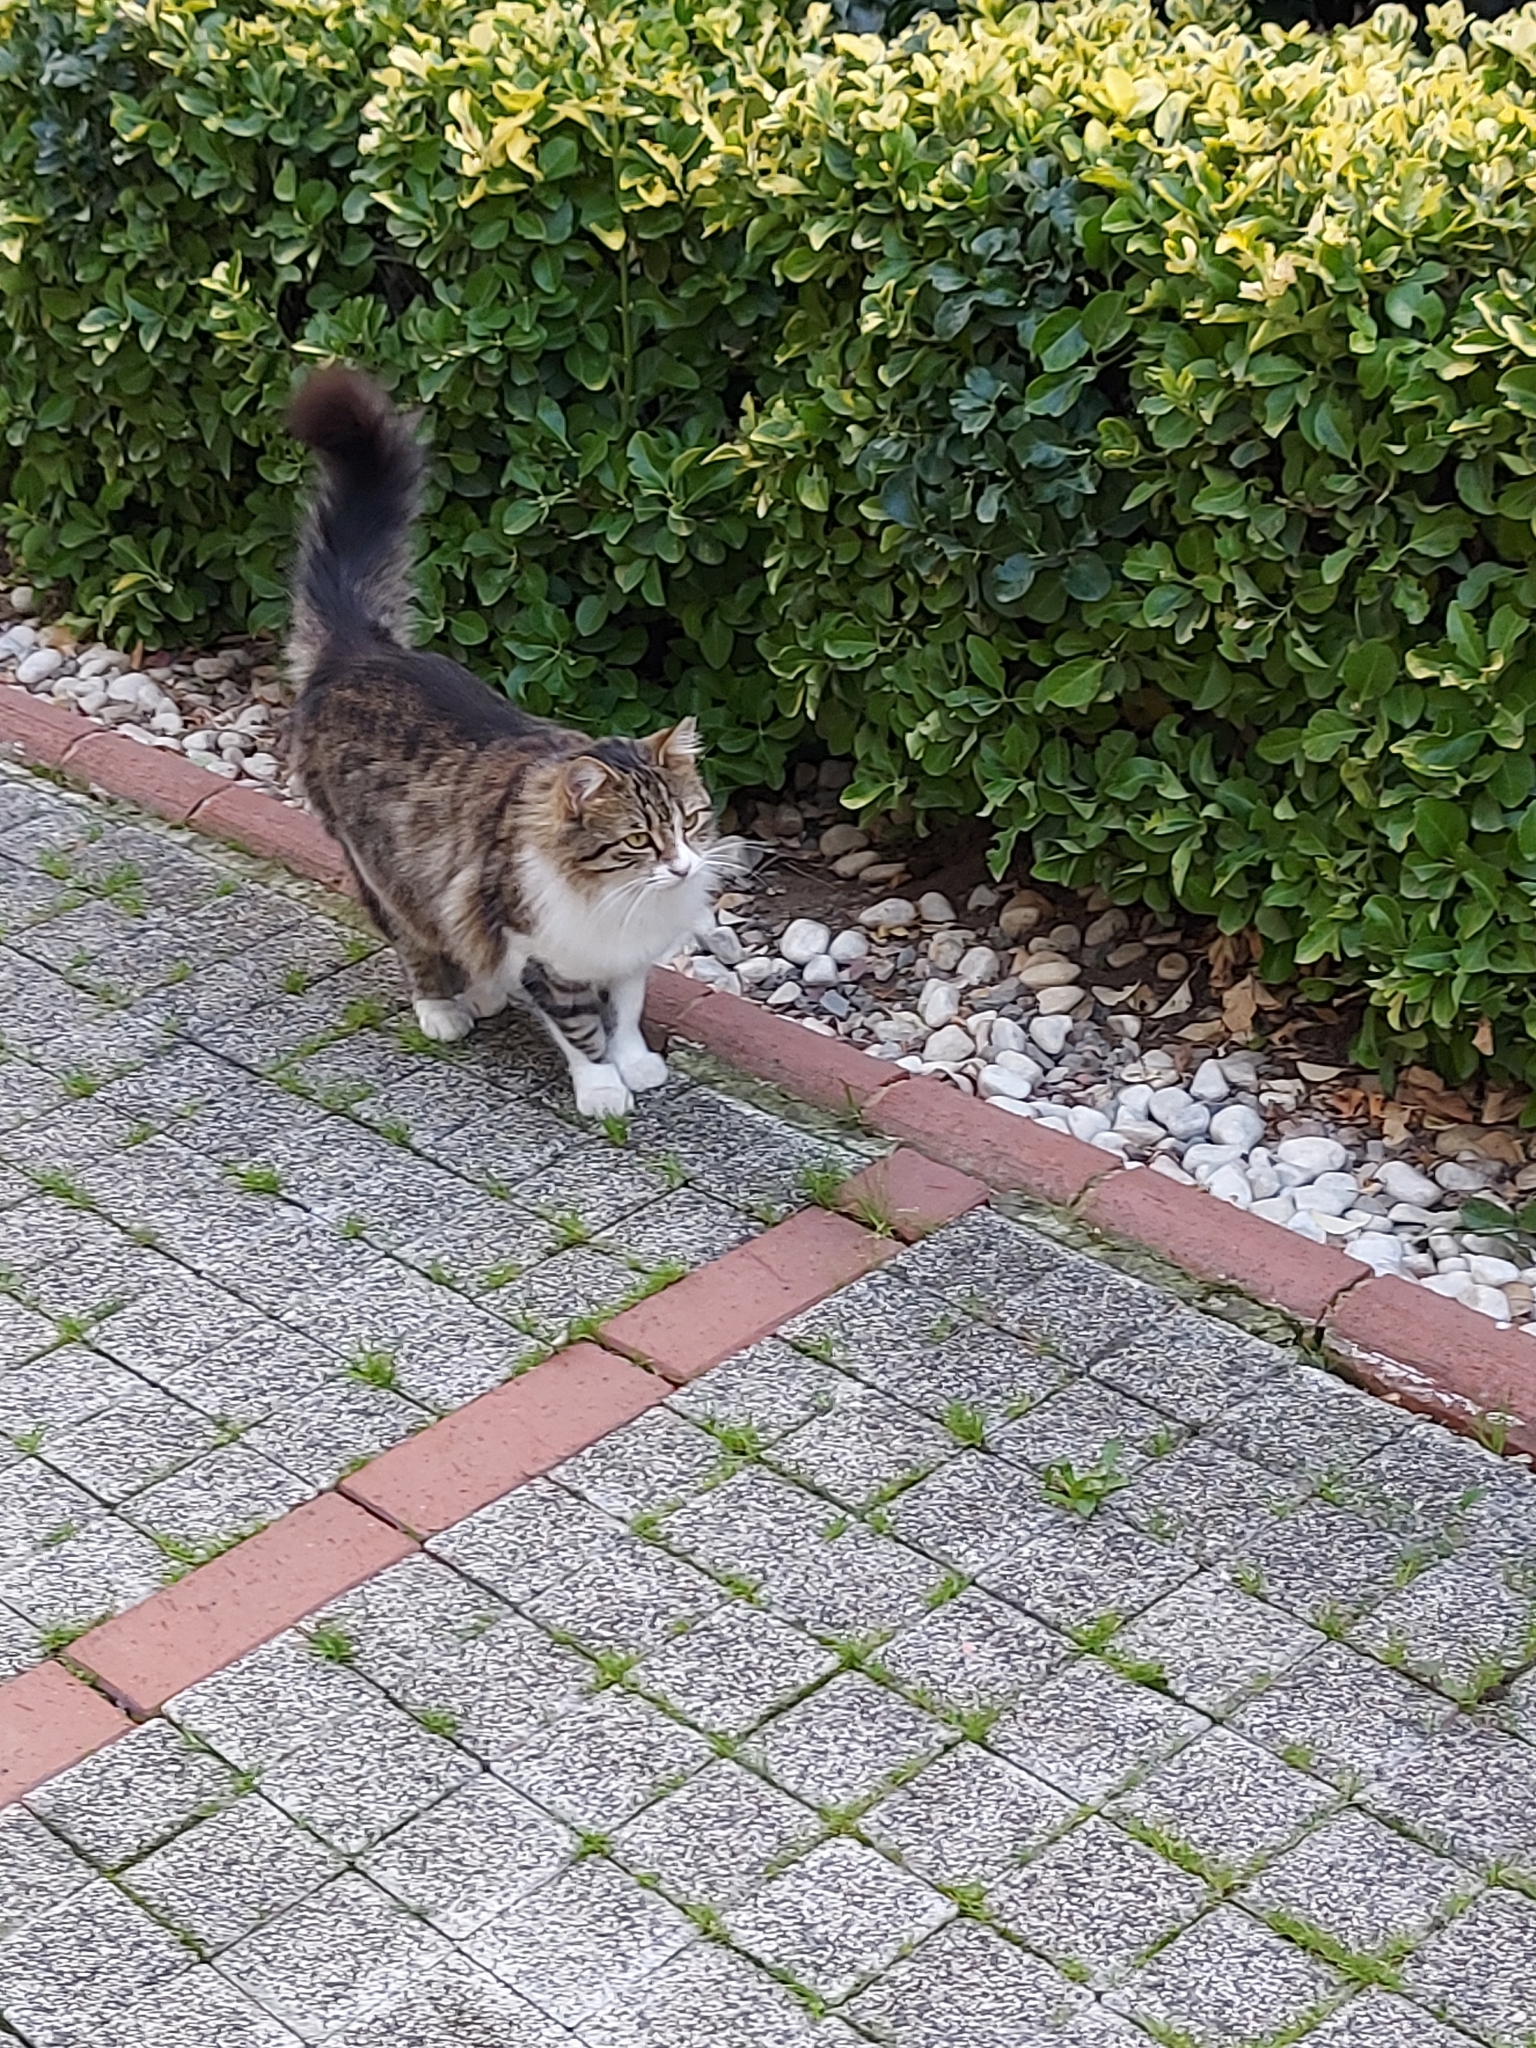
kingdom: Animalia
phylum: Chordata
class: Mammalia
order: Carnivora
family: Felidae
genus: Felis
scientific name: Felis catus
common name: Domestic cat
